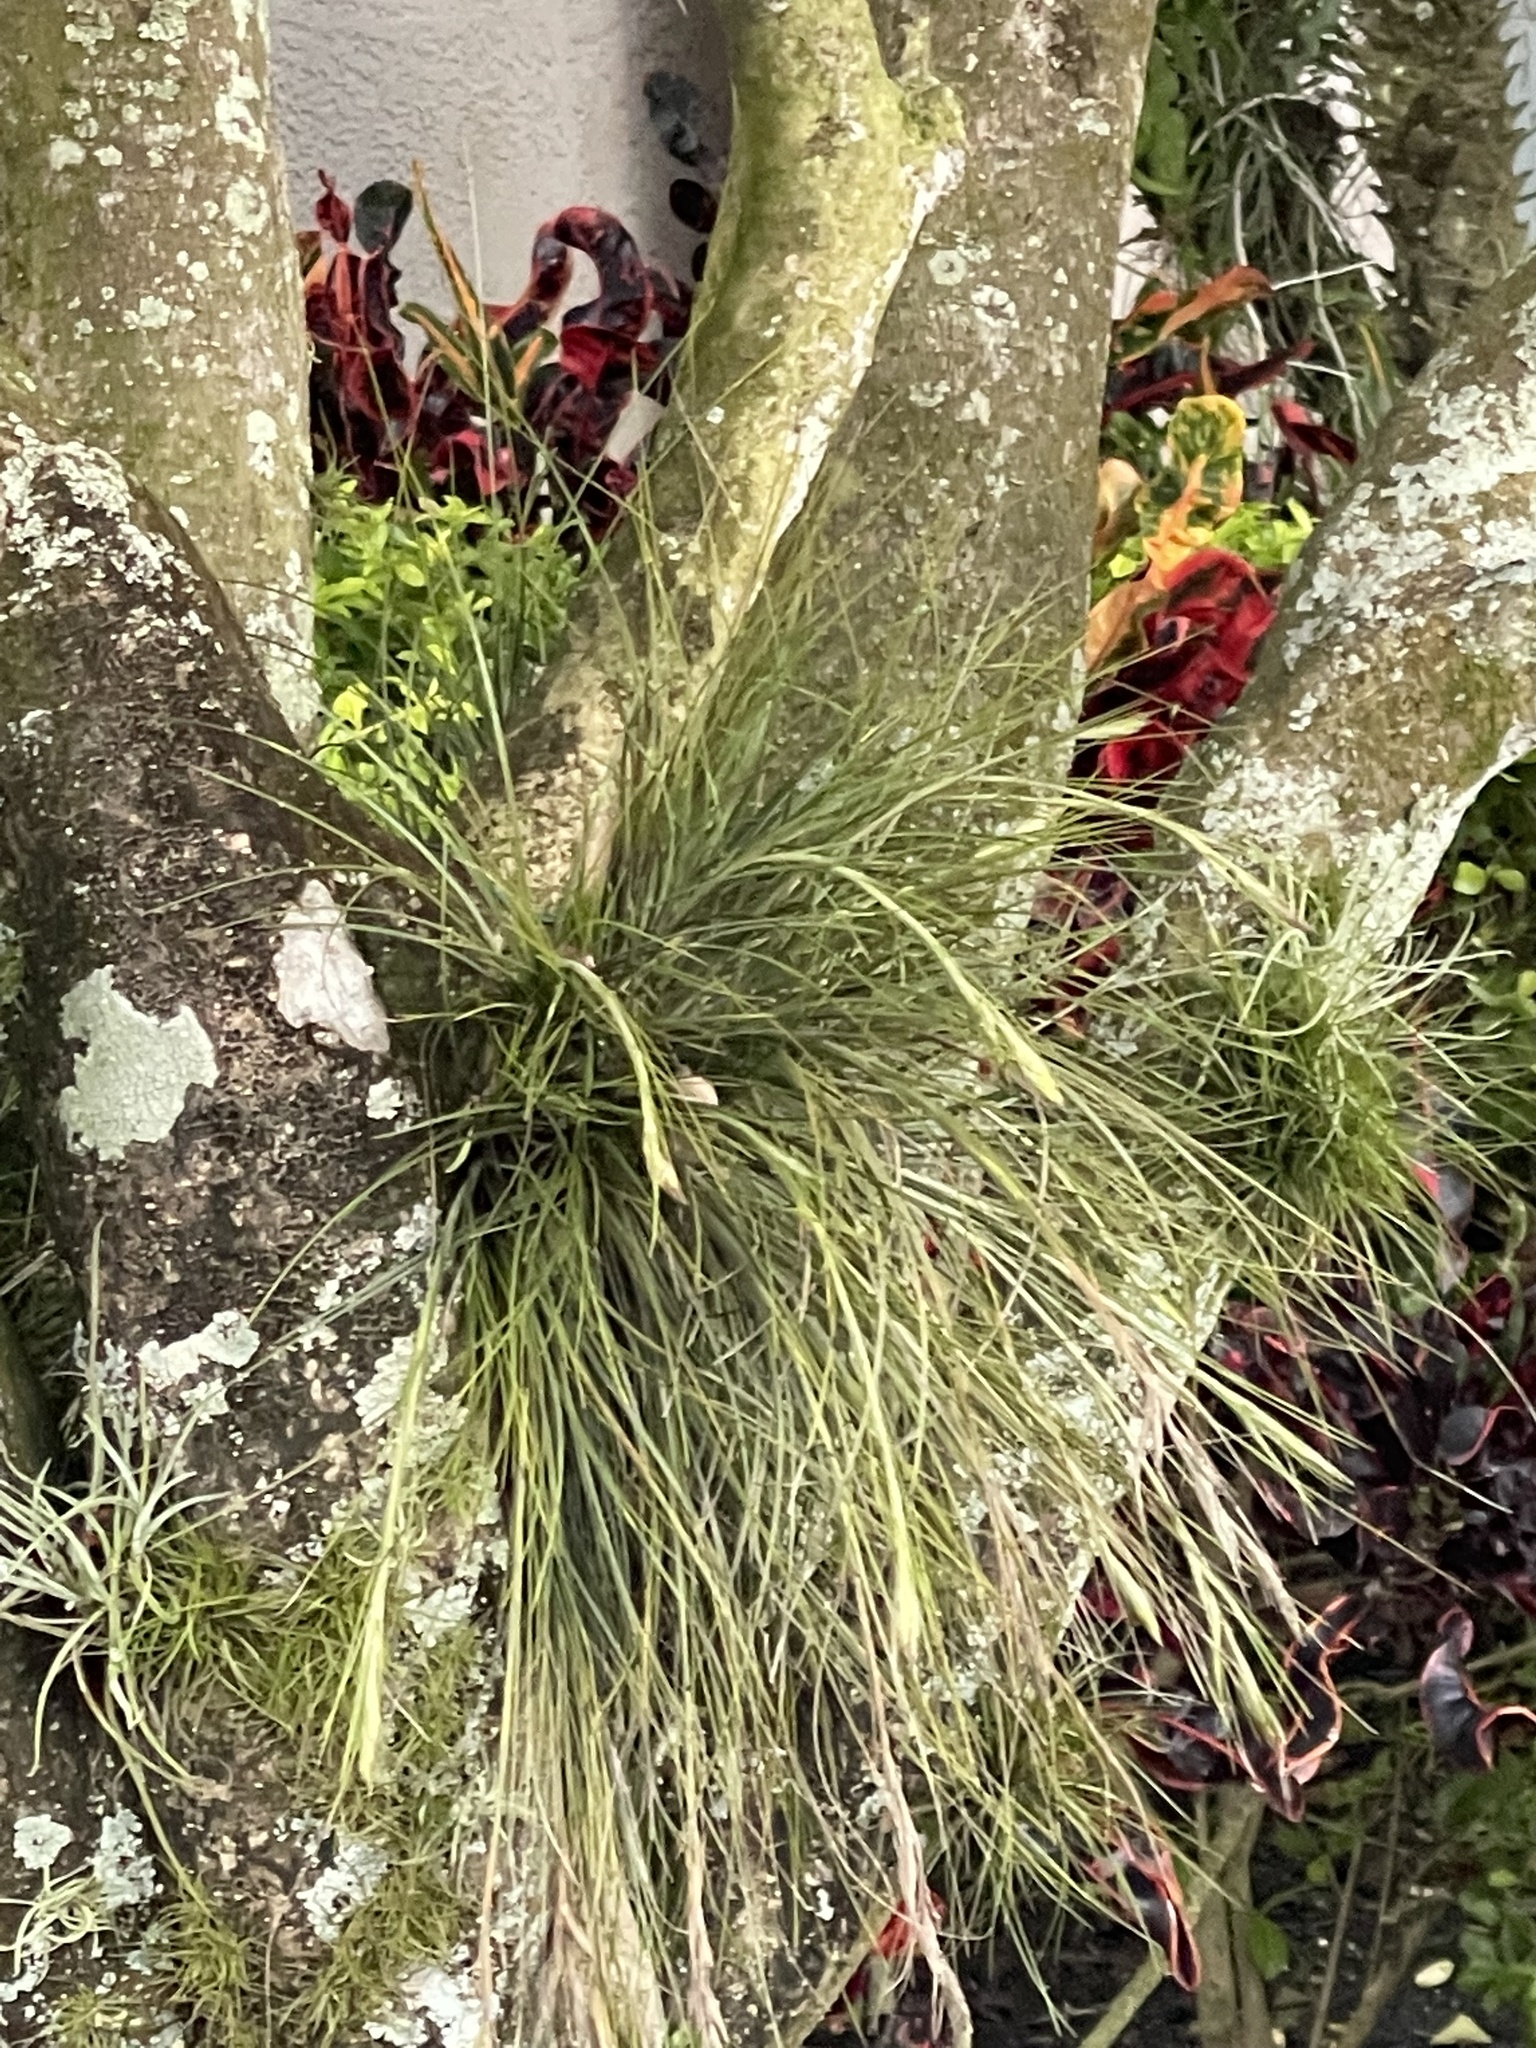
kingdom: Plantae
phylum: Tracheophyta
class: Liliopsida
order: Poales
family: Bromeliaceae
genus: Tillandsia
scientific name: Tillandsia setacea
